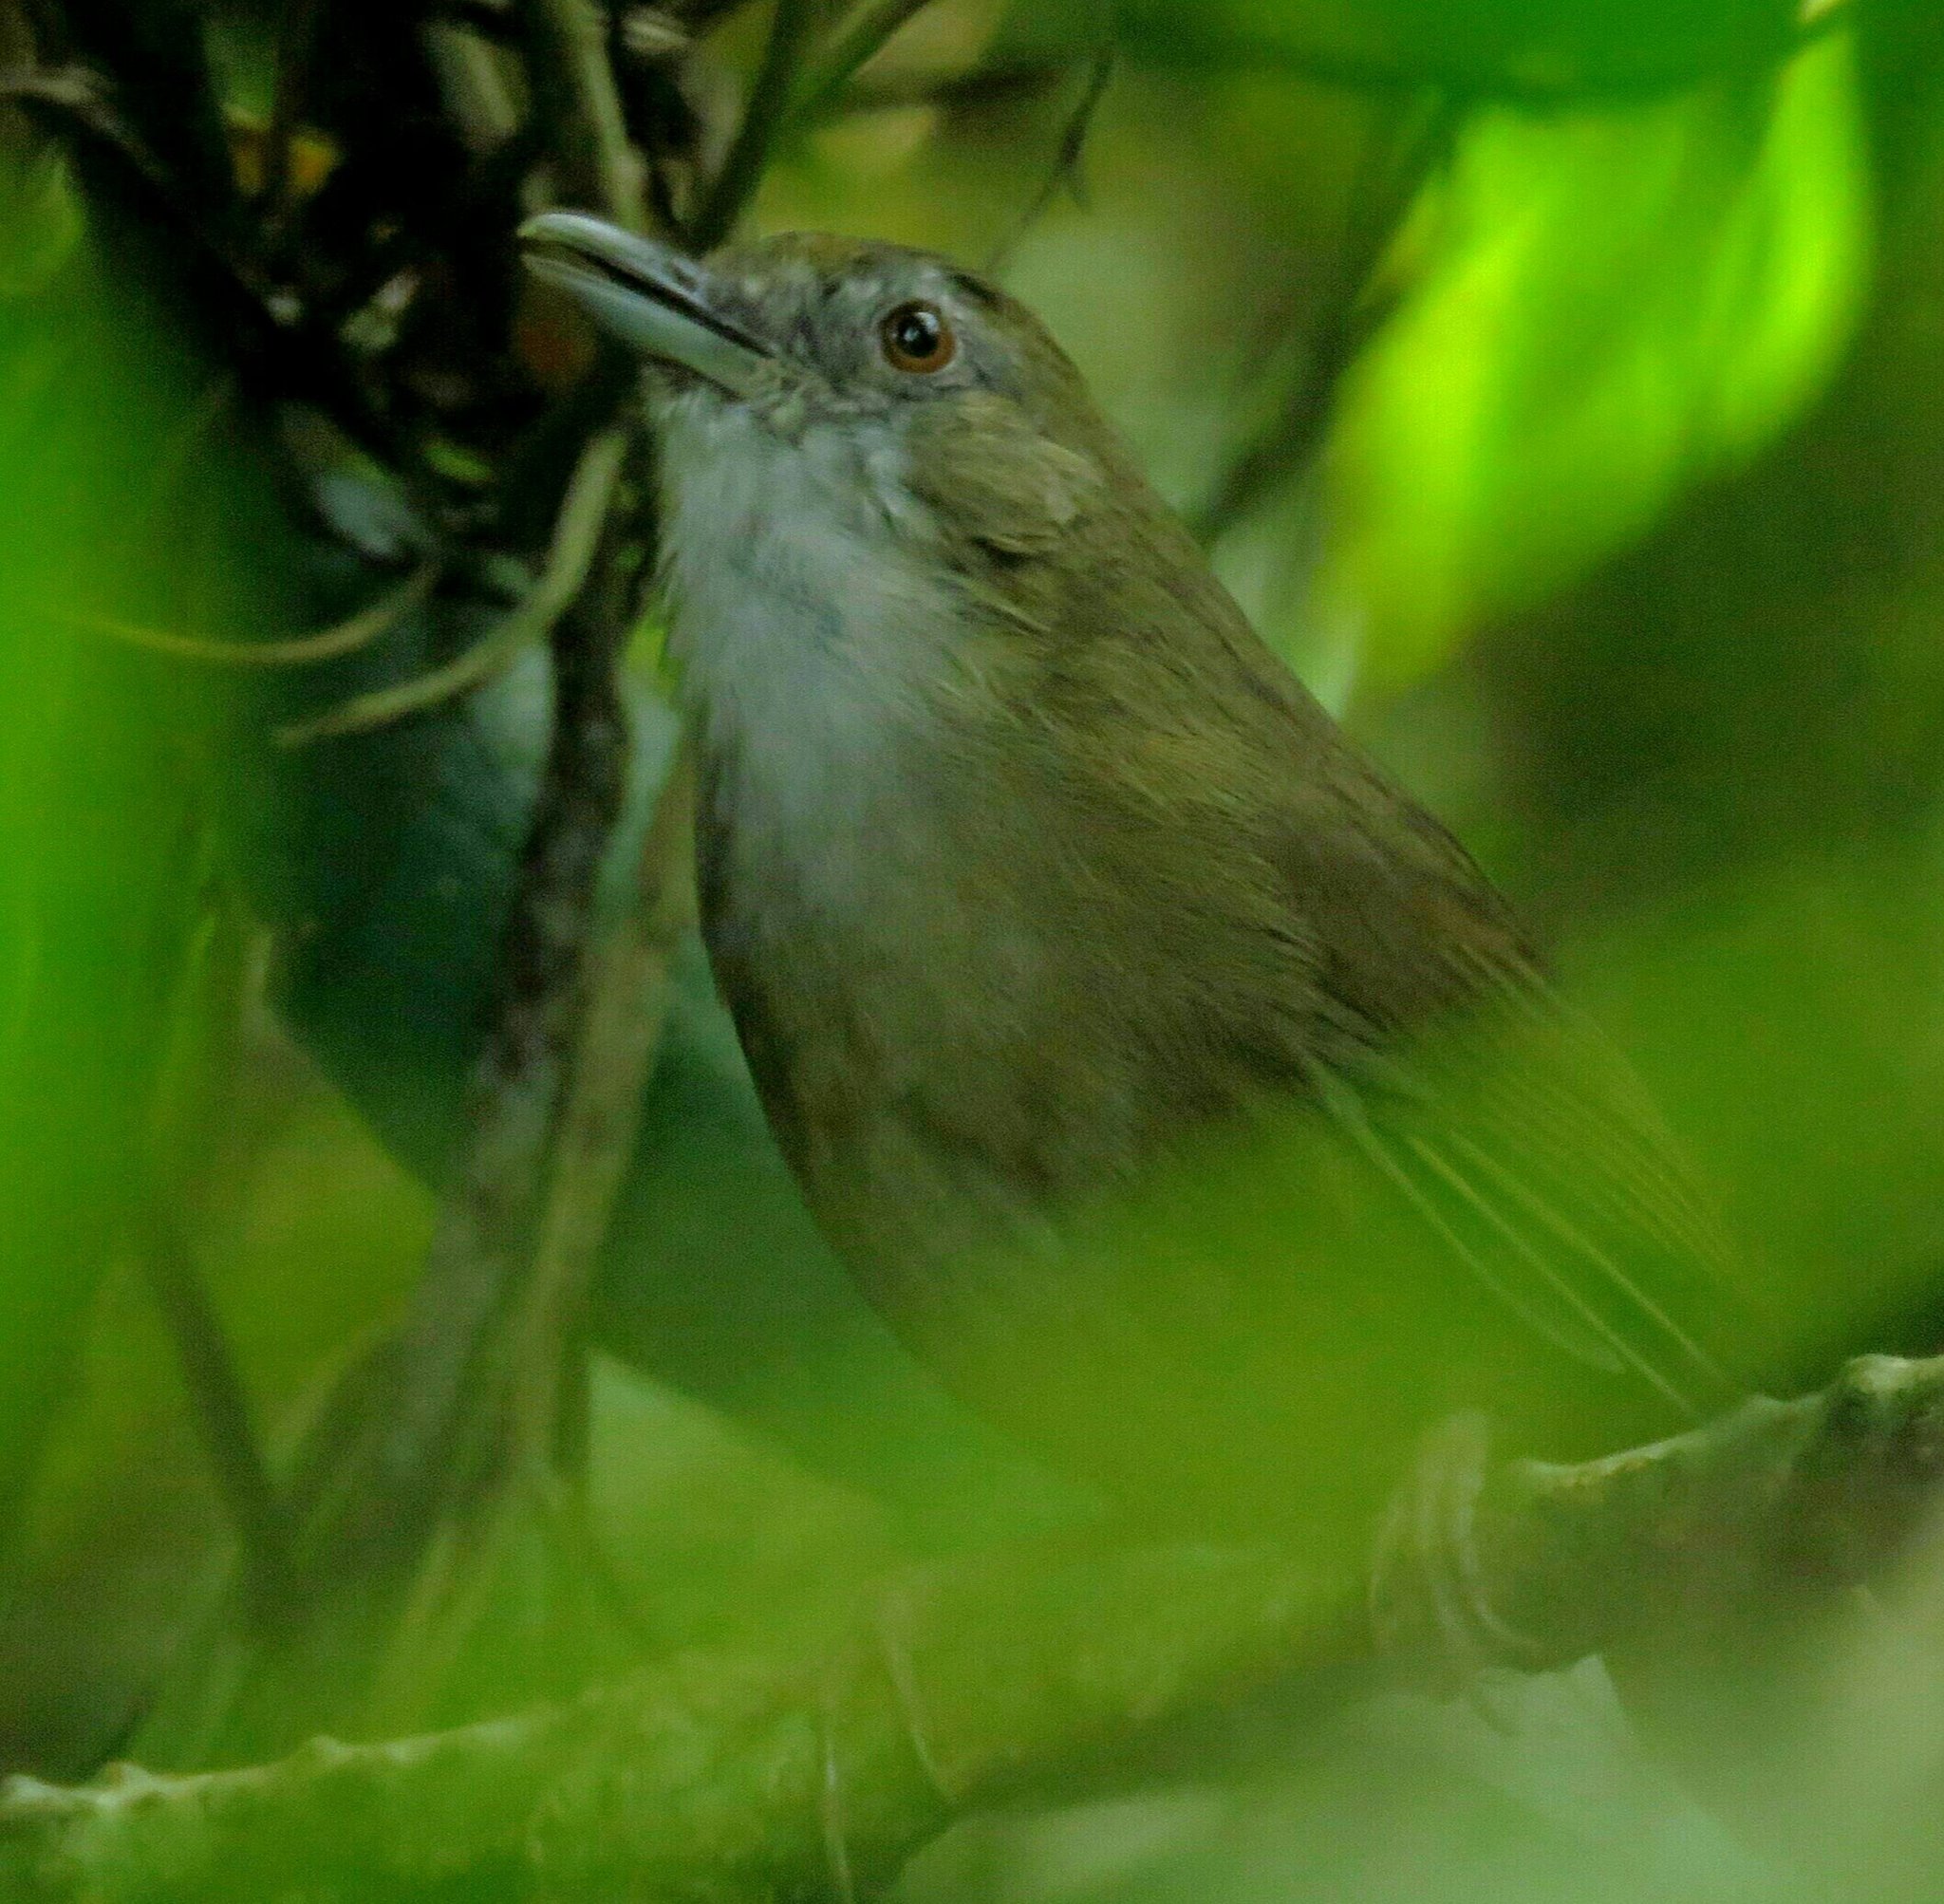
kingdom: Animalia
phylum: Chordata
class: Aves
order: Passeriformes
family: Pellorneidae
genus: Malacocincla
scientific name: Malacocincla abbotti
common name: Abbott's babbler
